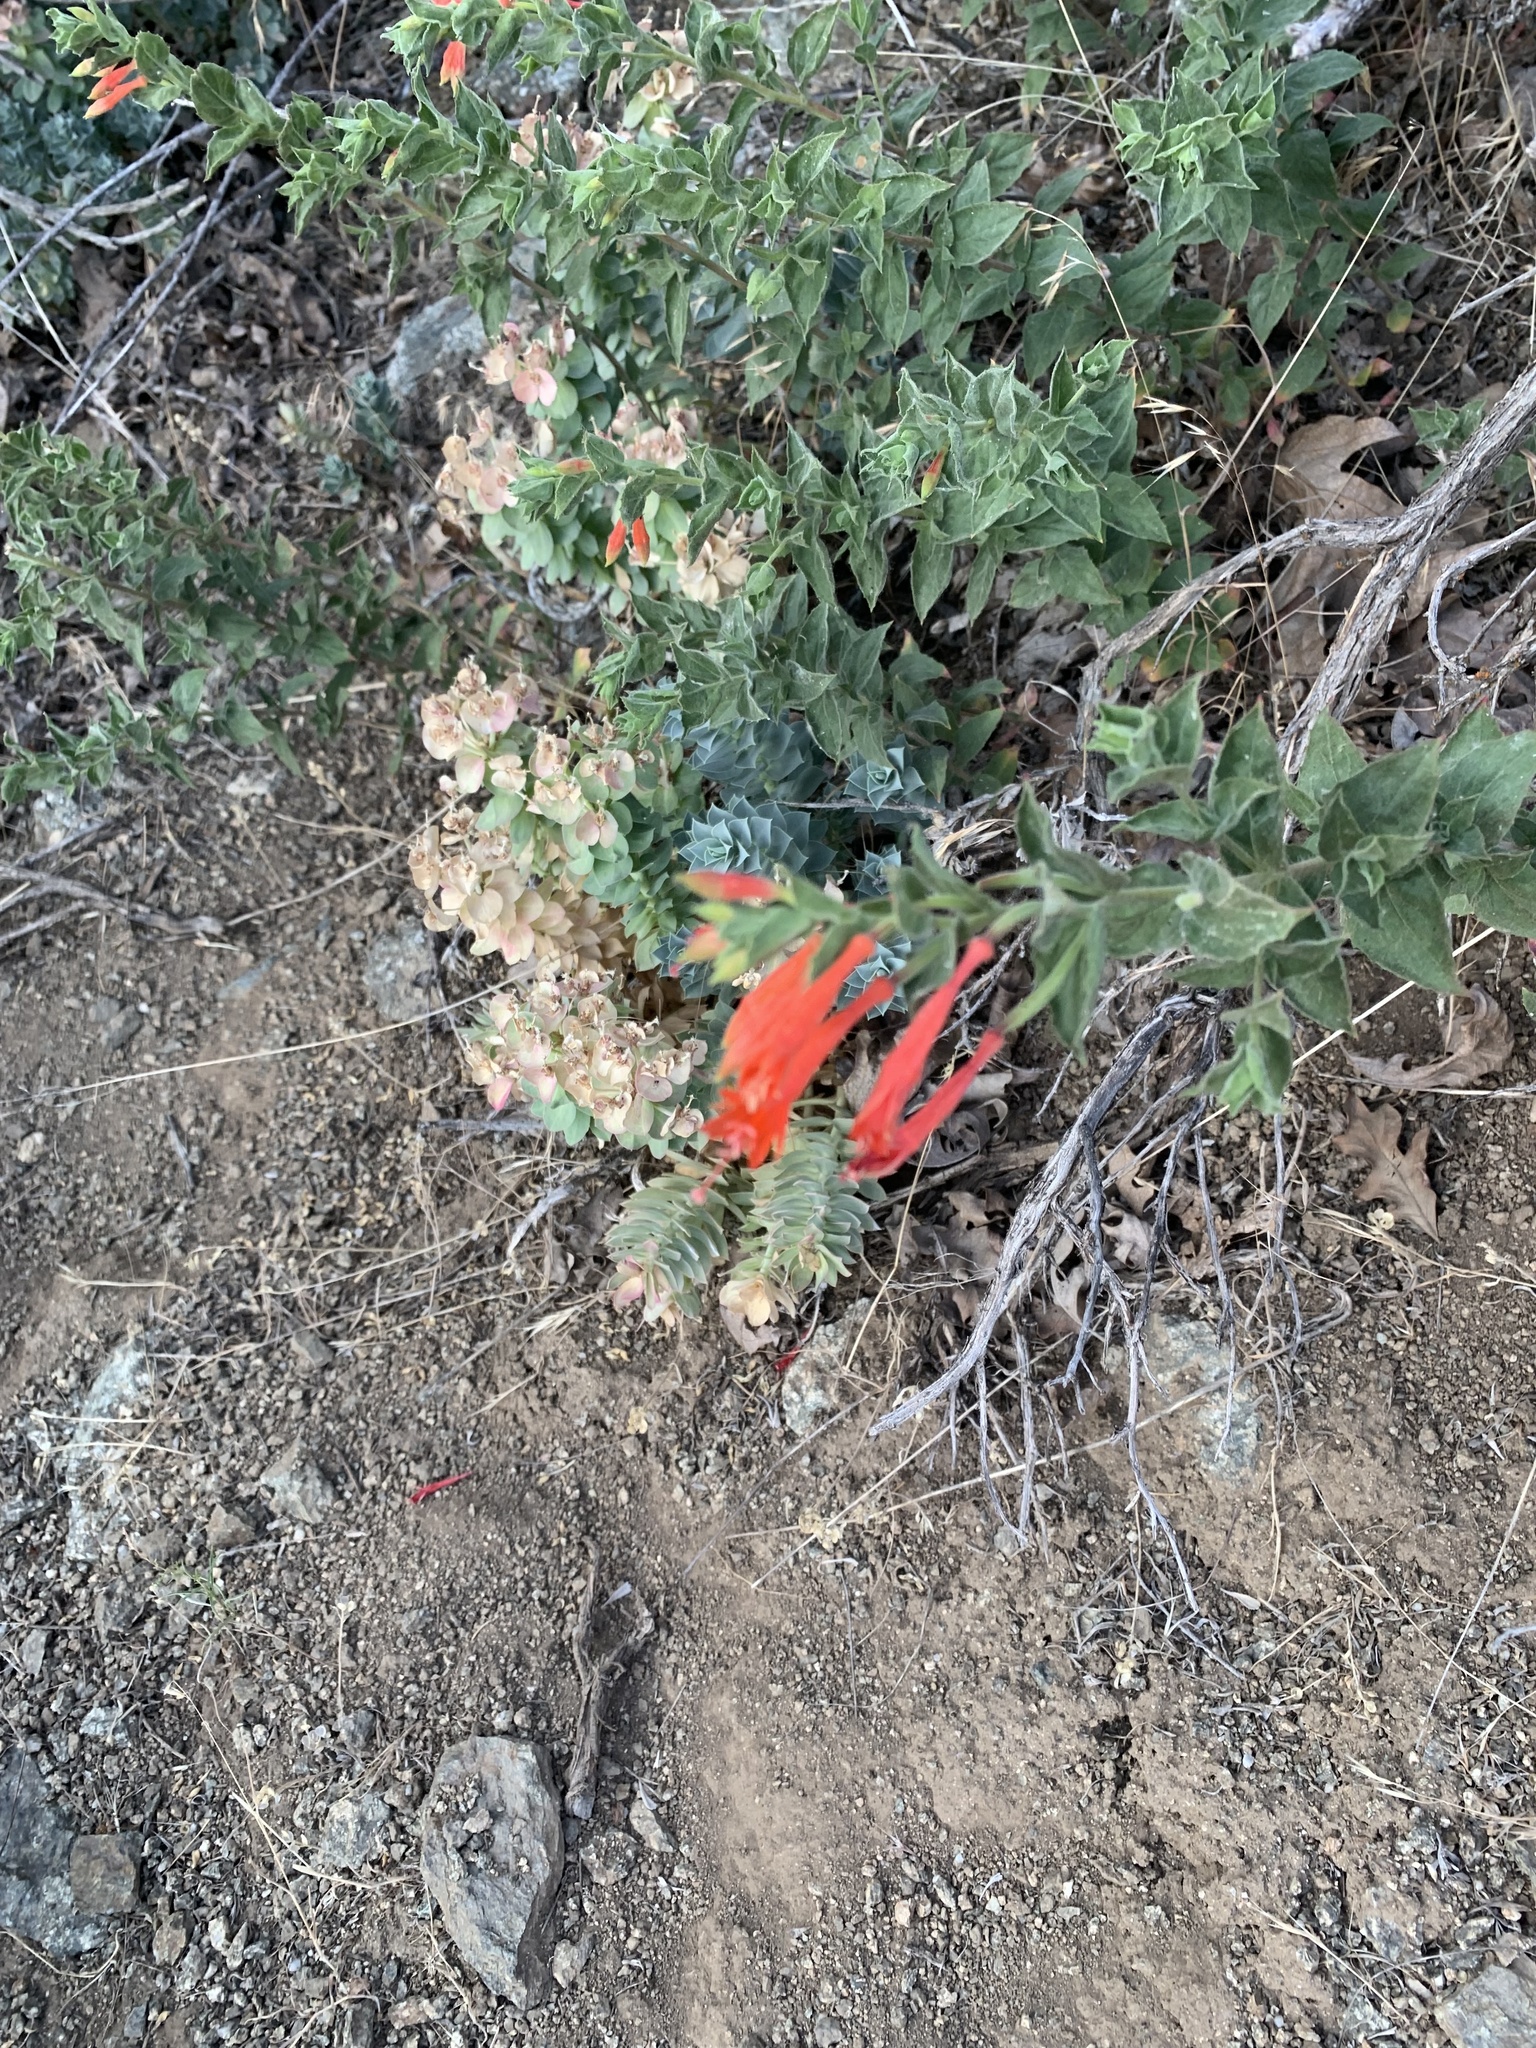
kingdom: Plantae
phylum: Tracheophyta
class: Magnoliopsida
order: Myrtales
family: Onagraceae
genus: Epilobium
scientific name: Epilobium canum
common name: California-fuchsia
